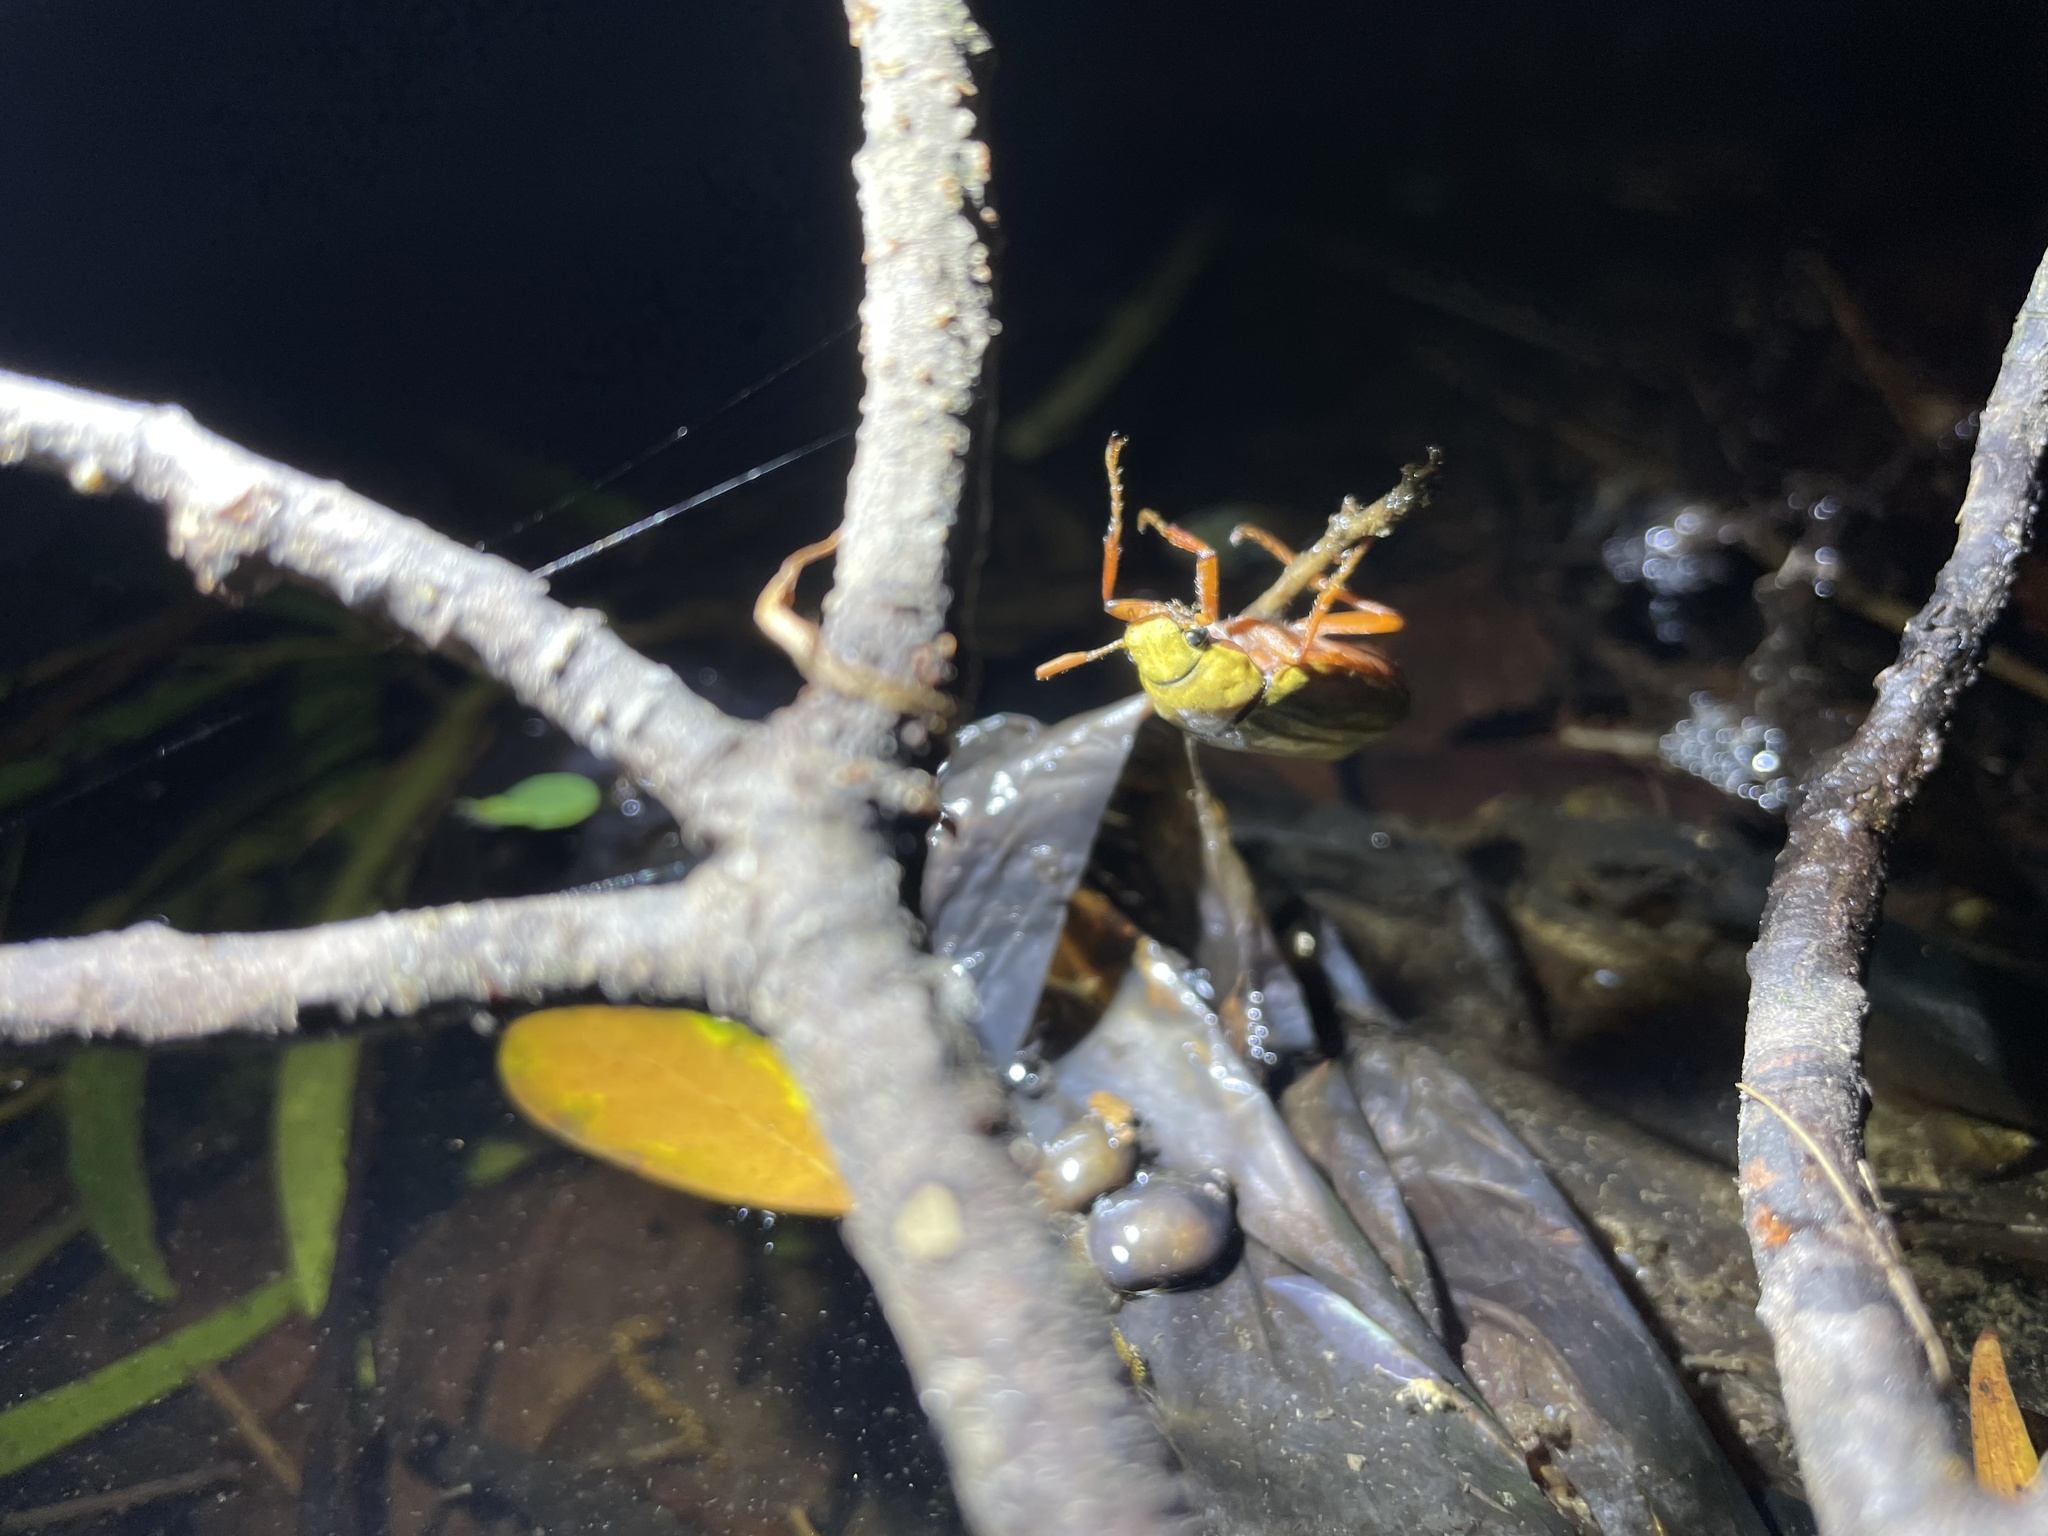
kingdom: Animalia
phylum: Arthropoda
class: Insecta
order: Coleoptera
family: Scarabaeidae
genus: Cyphochilus
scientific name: Cyphochilus apicalis
